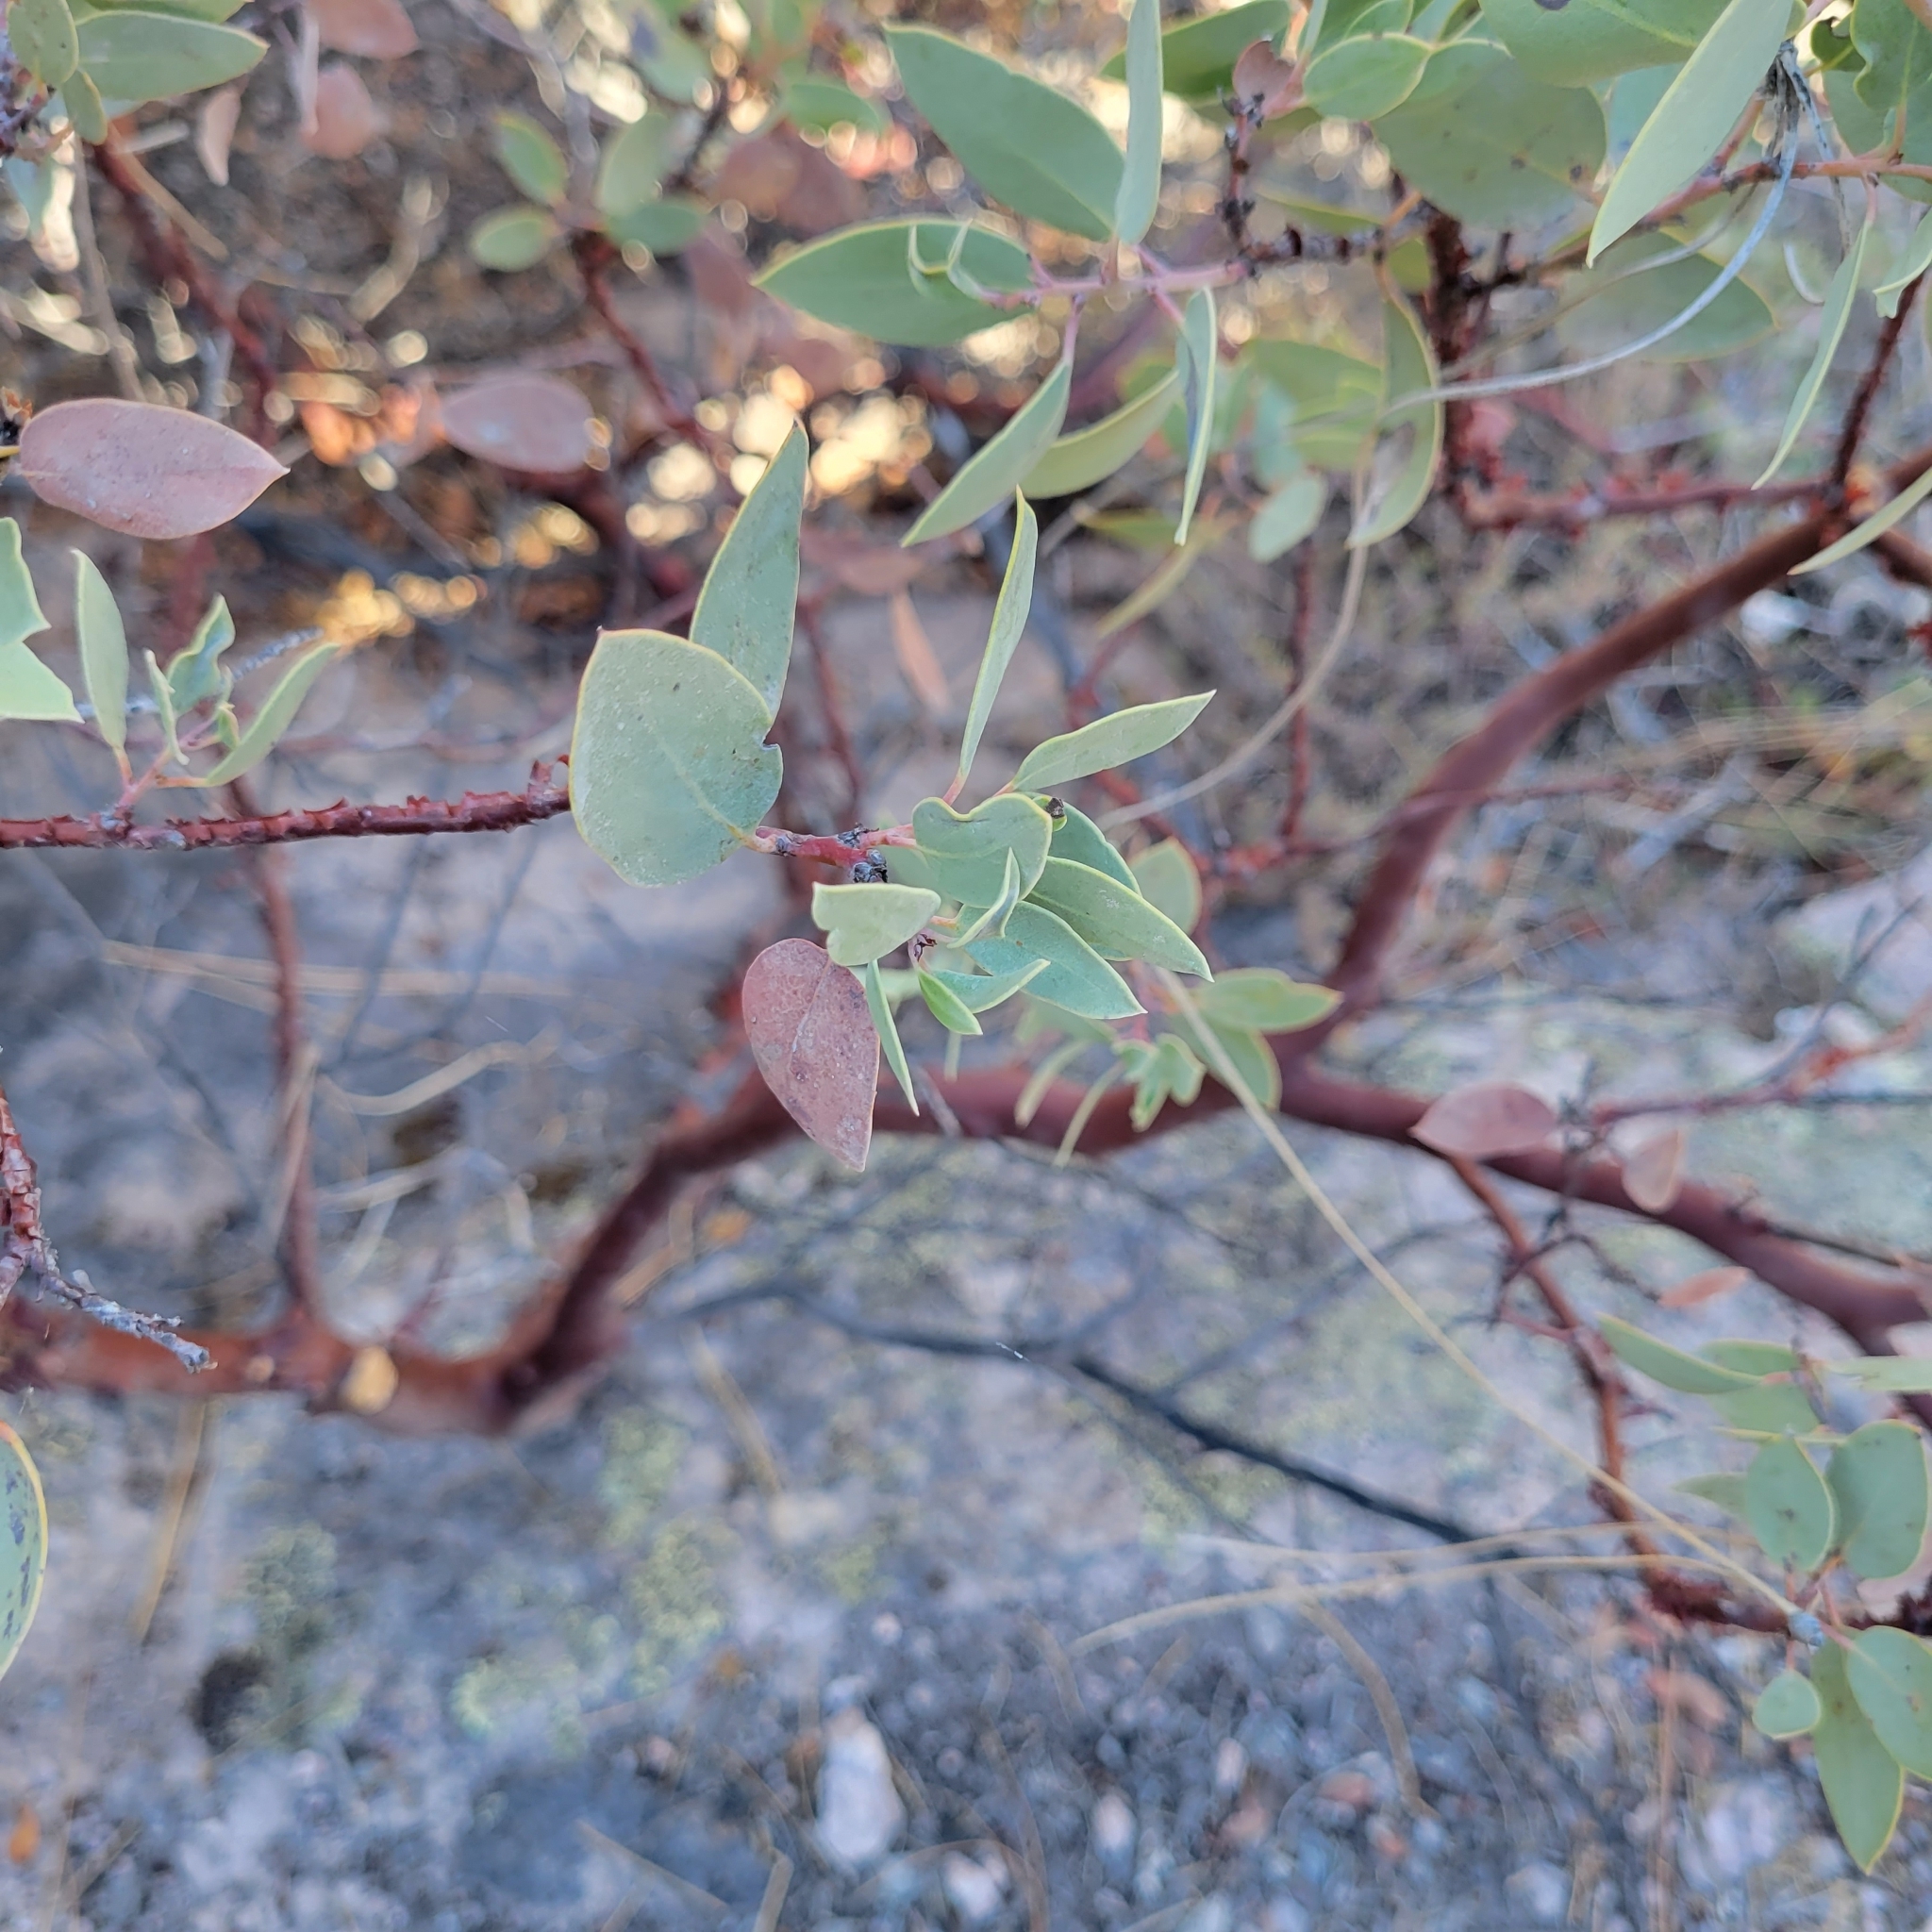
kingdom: Plantae
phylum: Tracheophyta
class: Magnoliopsida
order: Ericales
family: Ericaceae
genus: Arctostaphylos
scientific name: Arctostaphylos glauca
